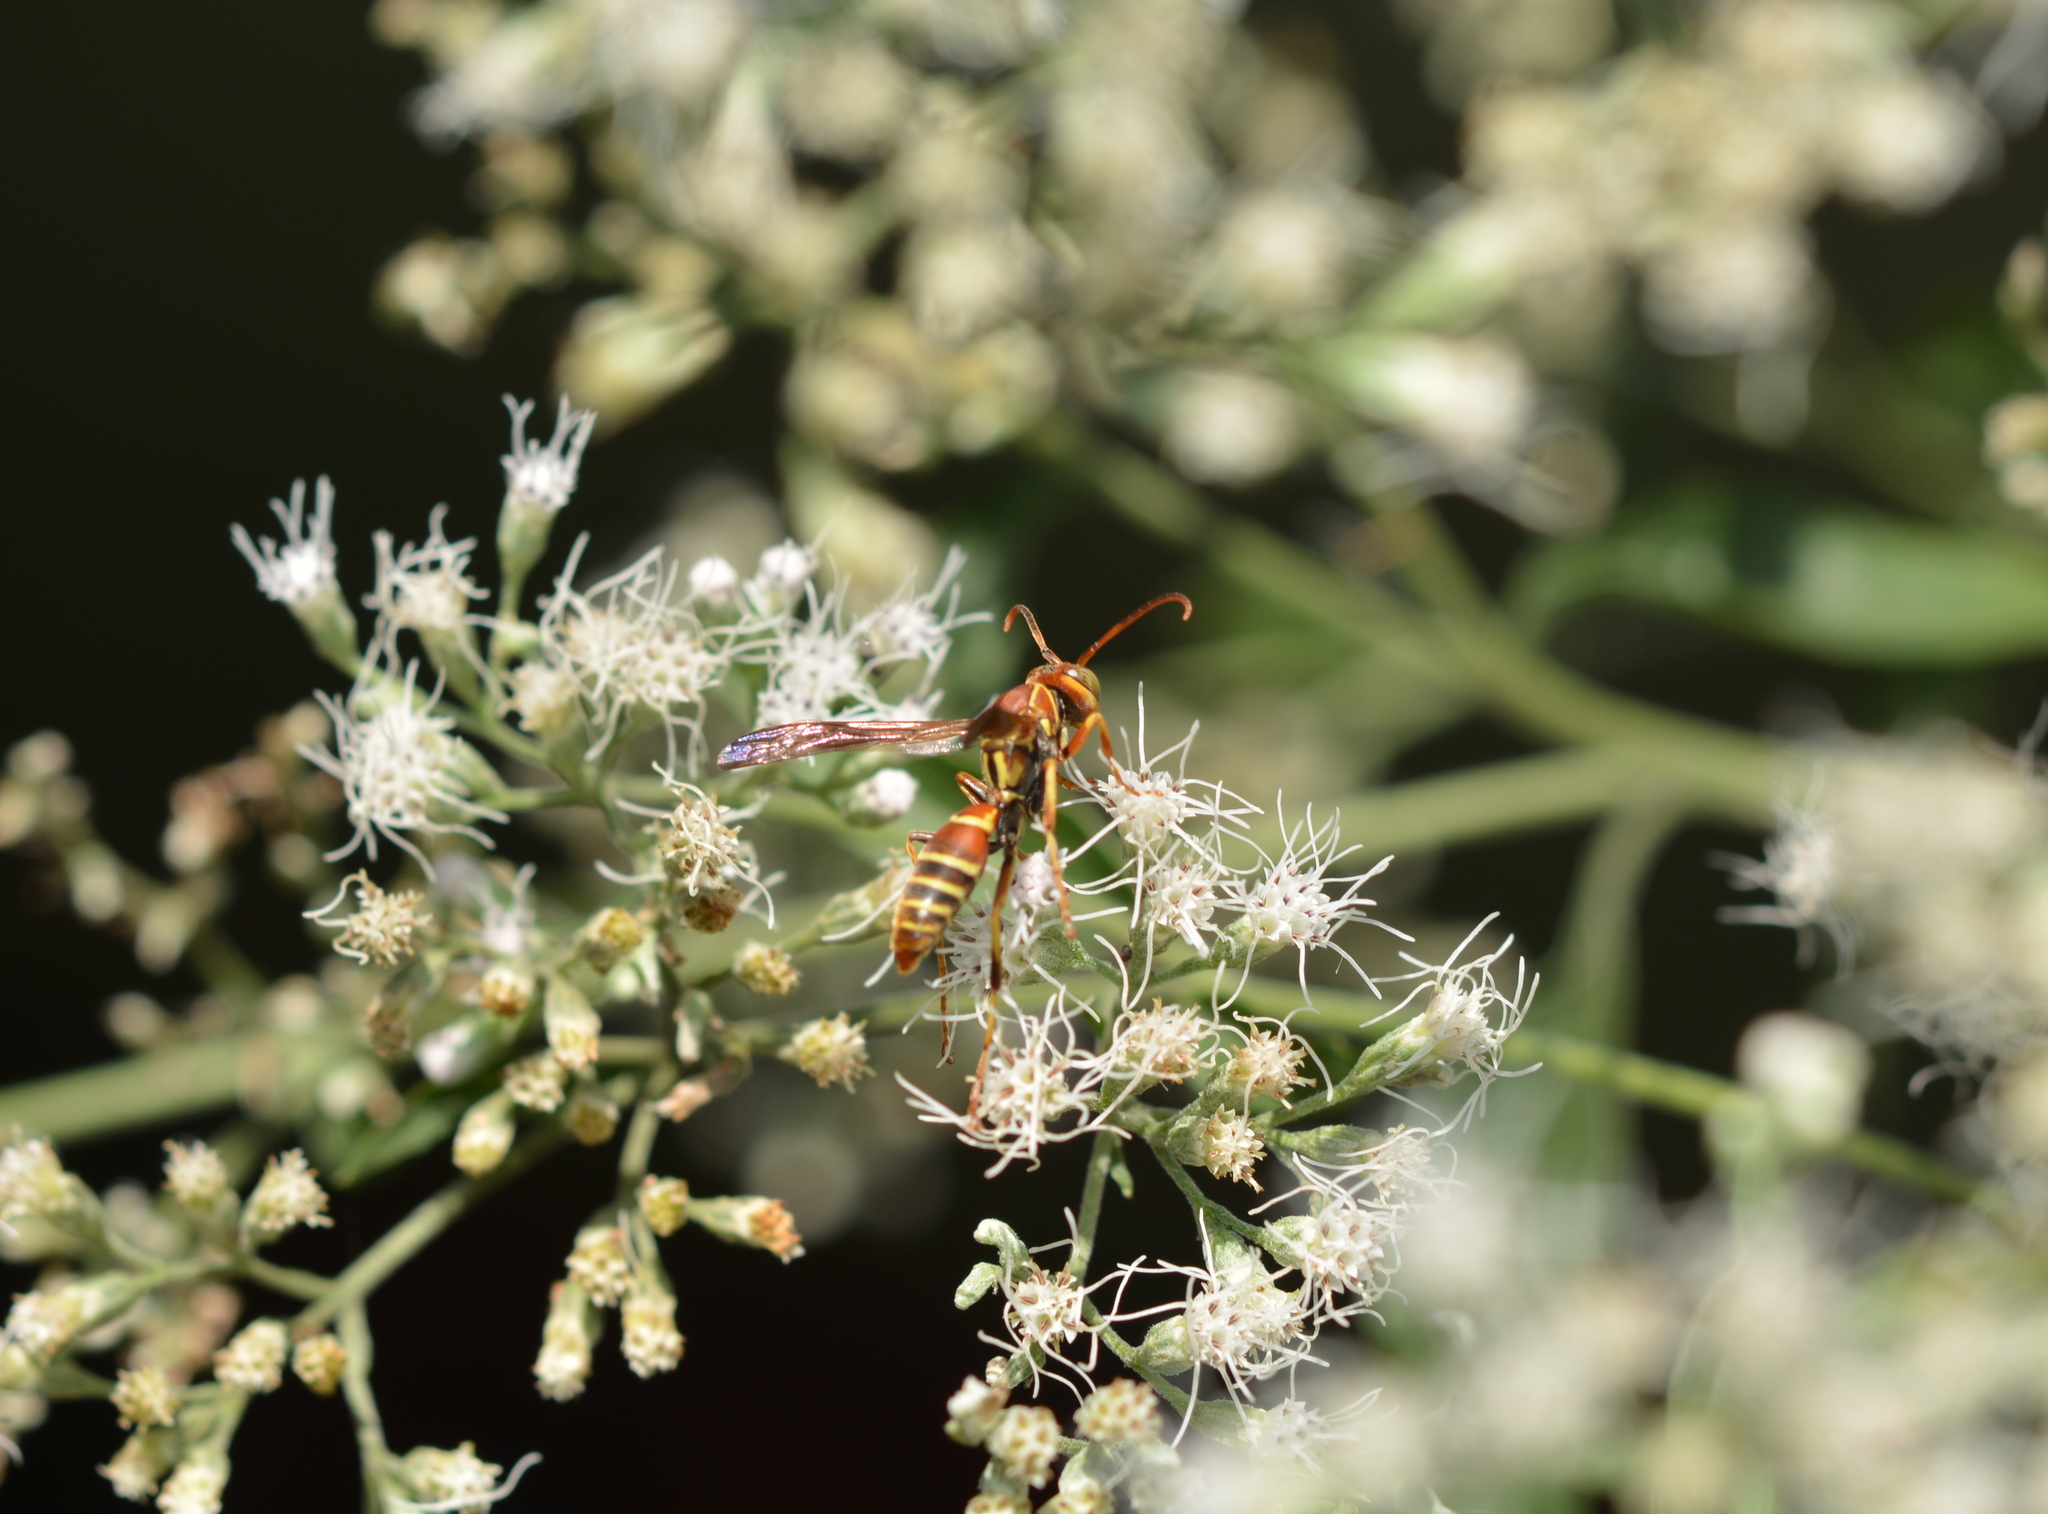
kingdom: Animalia
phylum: Arthropoda
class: Insecta
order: Hymenoptera
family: Eumenidae
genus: Polistes
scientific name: Polistes dorsalis
